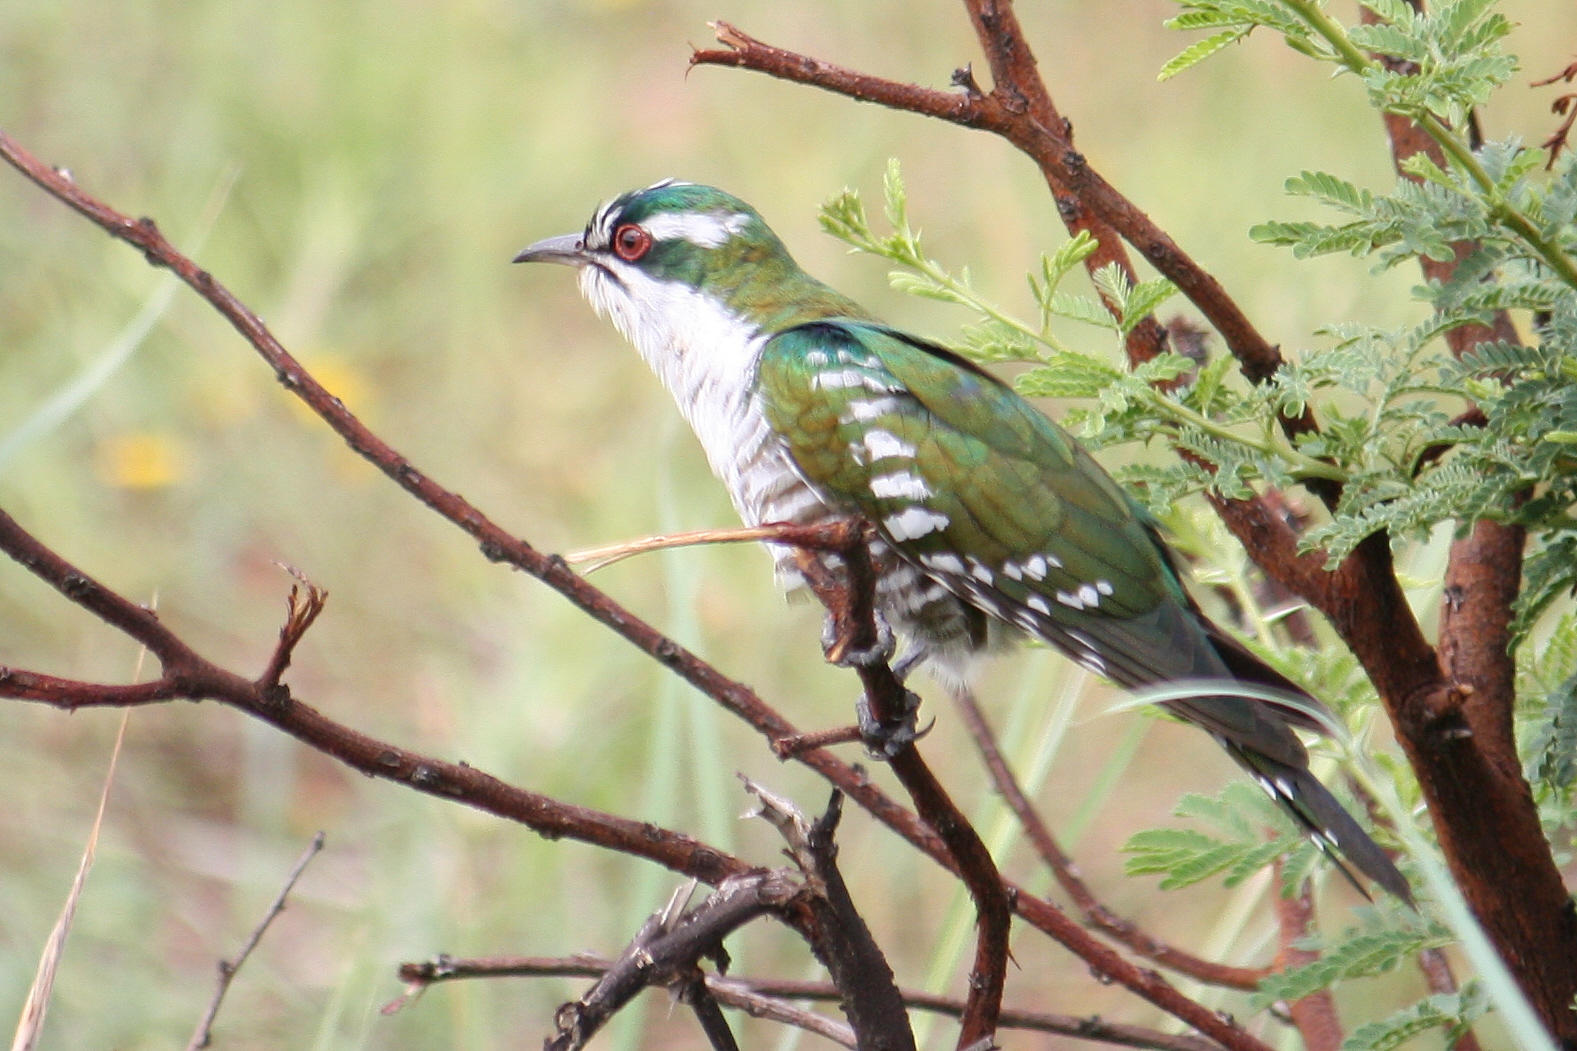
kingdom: Animalia
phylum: Chordata
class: Aves
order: Cuculiformes
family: Cuculidae
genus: Chrysococcyx
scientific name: Chrysococcyx caprius
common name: Diederik cuckoo
